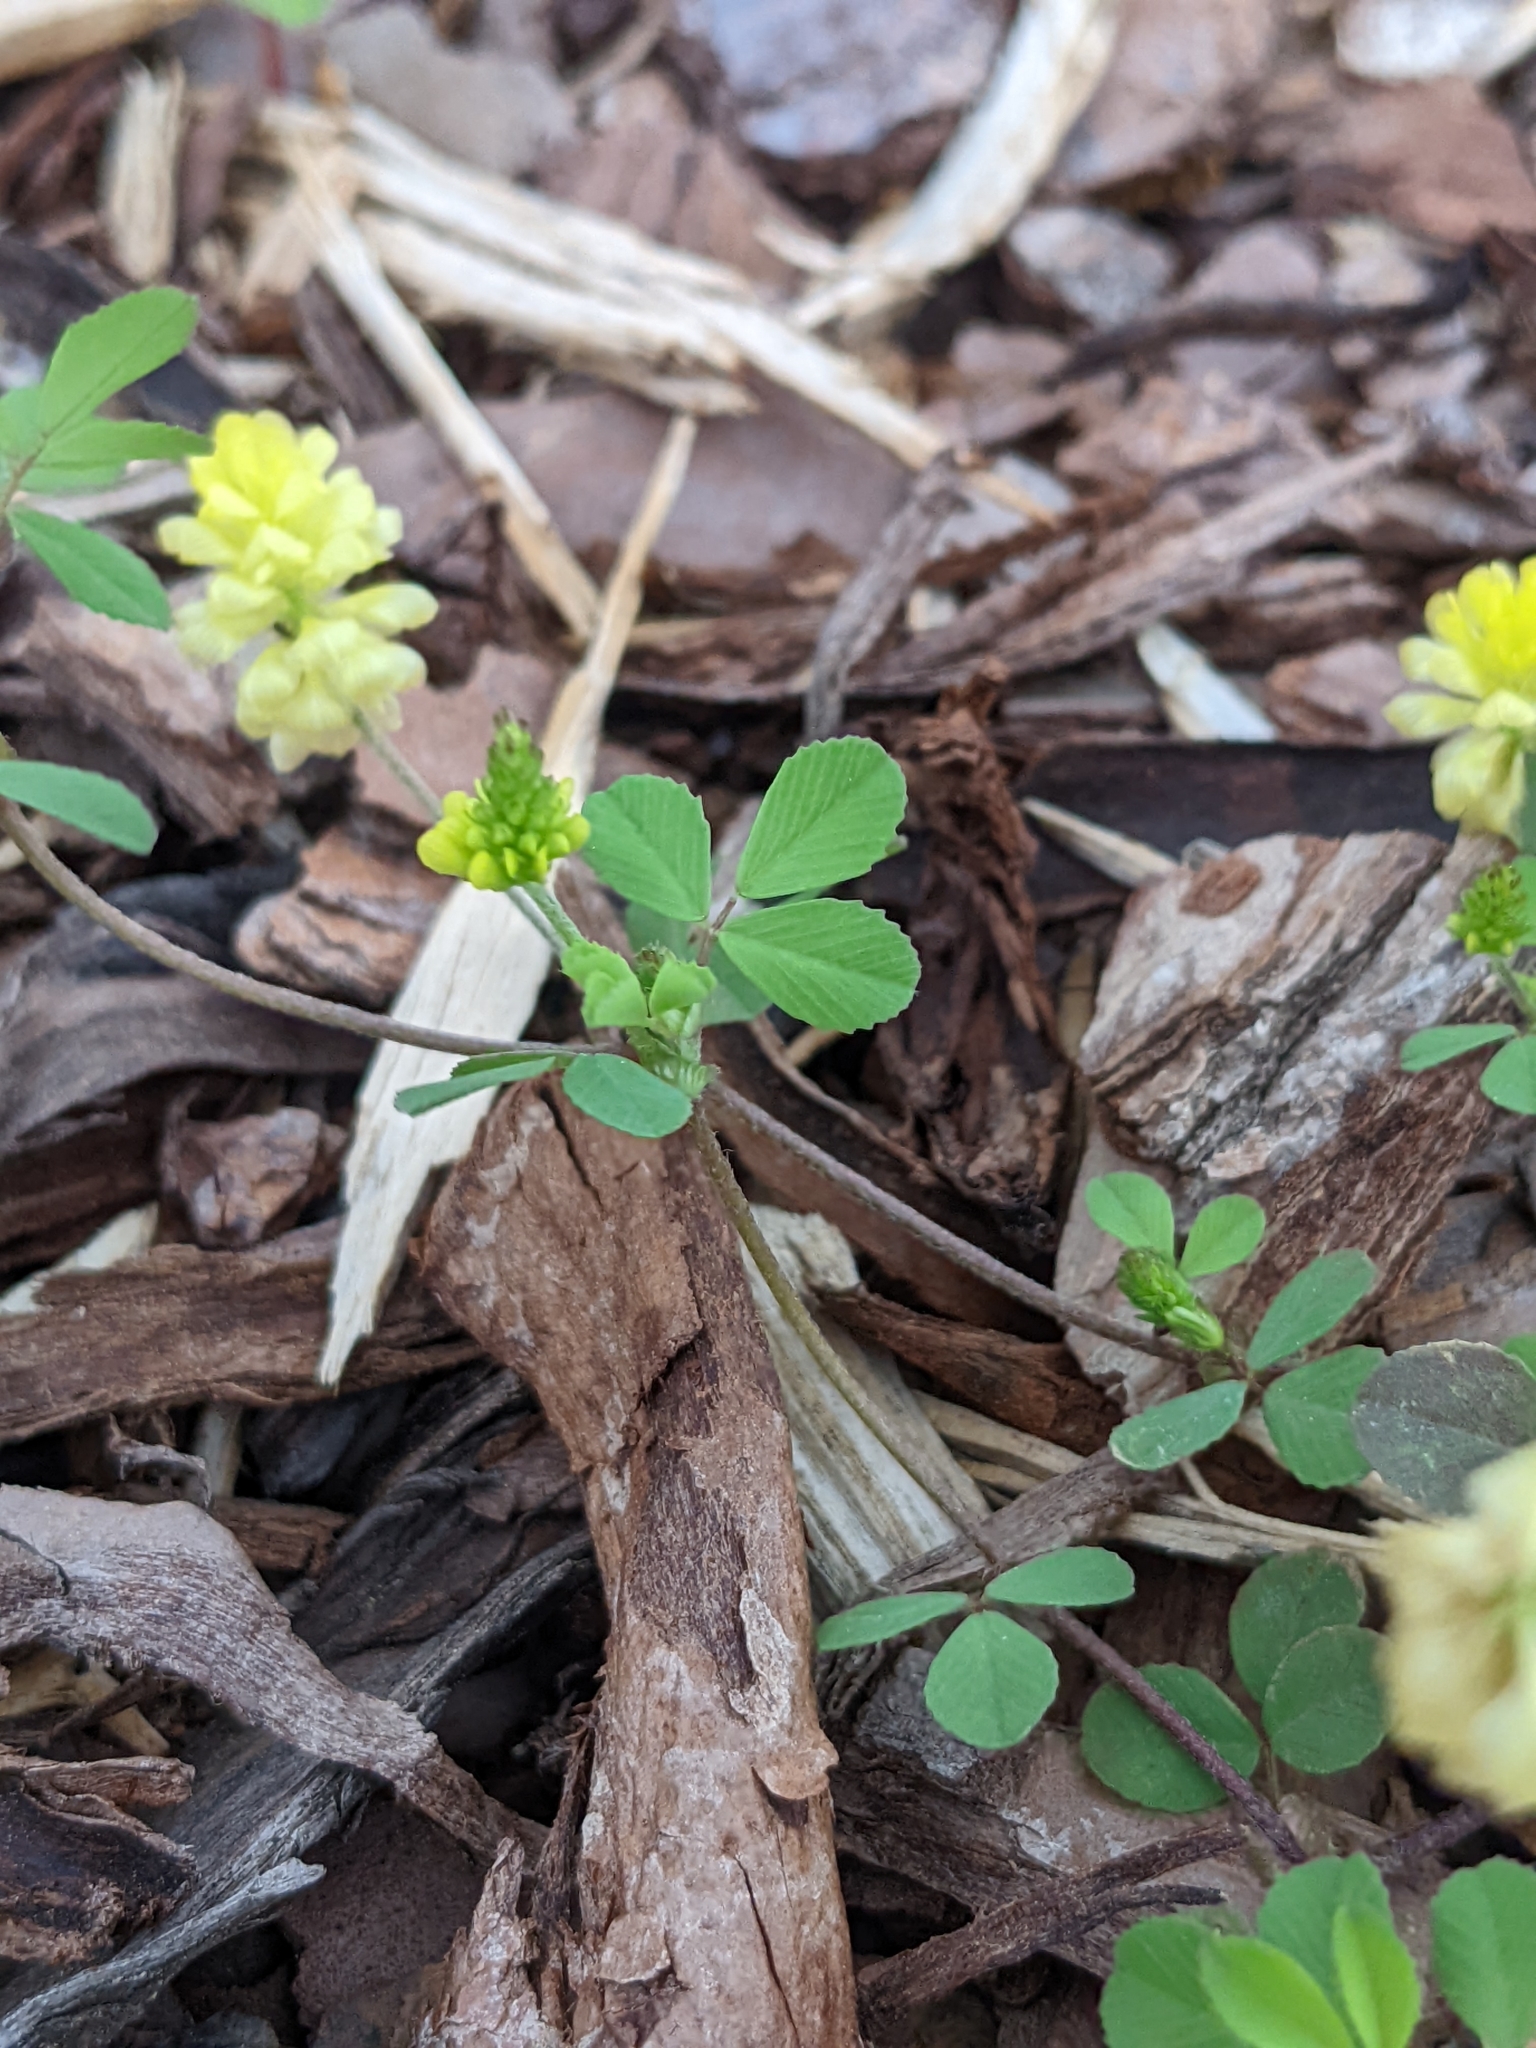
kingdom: Plantae
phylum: Tracheophyta
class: Magnoliopsida
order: Fabales
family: Fabaceae
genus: Trifolium
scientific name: Trifolium campestre
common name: Field clover
